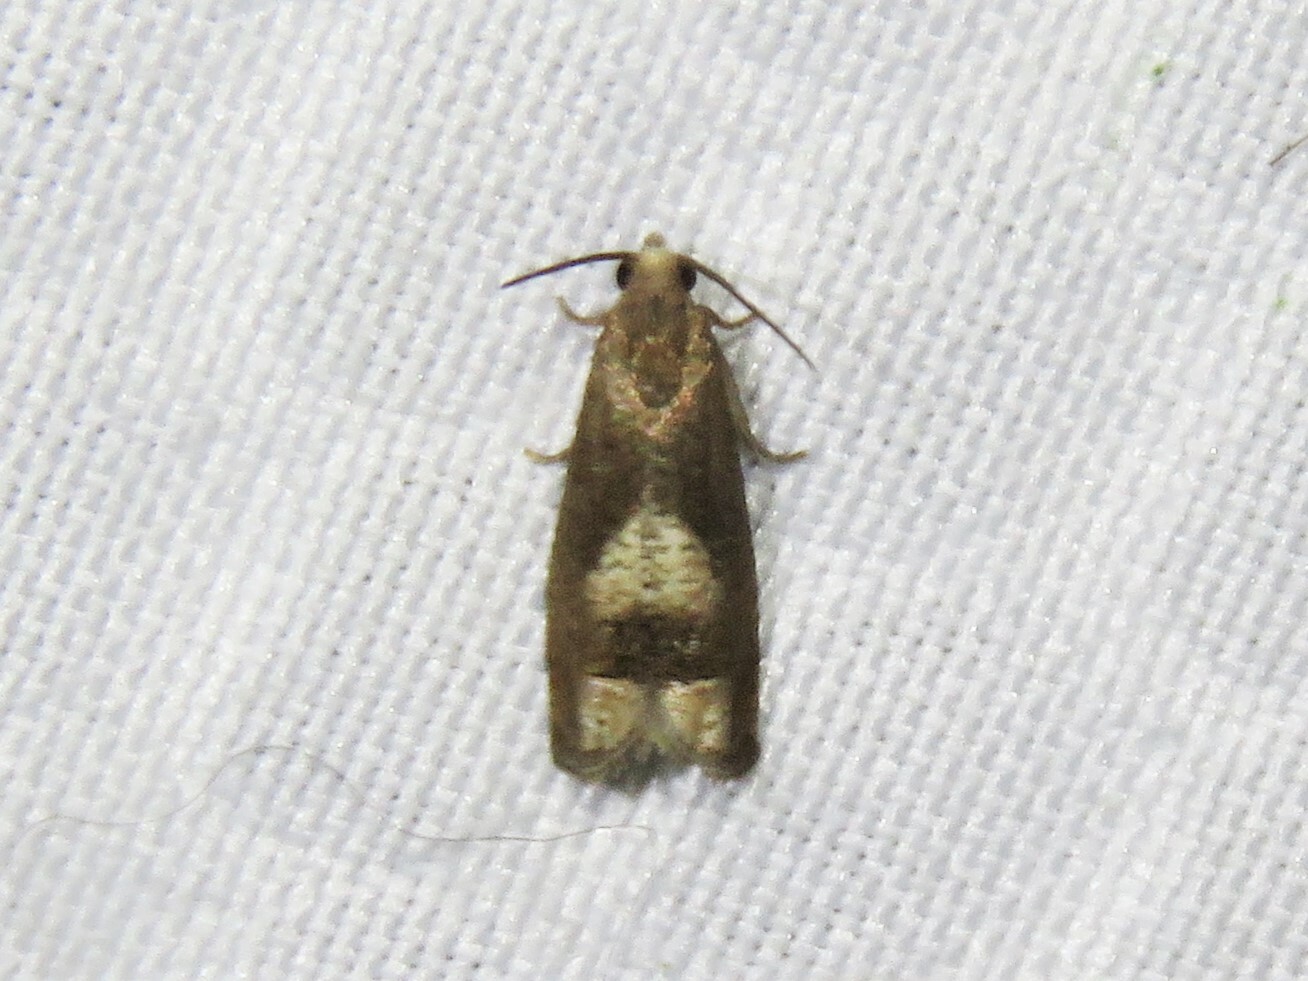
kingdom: Animalia
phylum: Arthropoda
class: Insecta
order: Lepidoptera
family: Tortricidae
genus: Epiblema
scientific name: Epiblema boxcana
